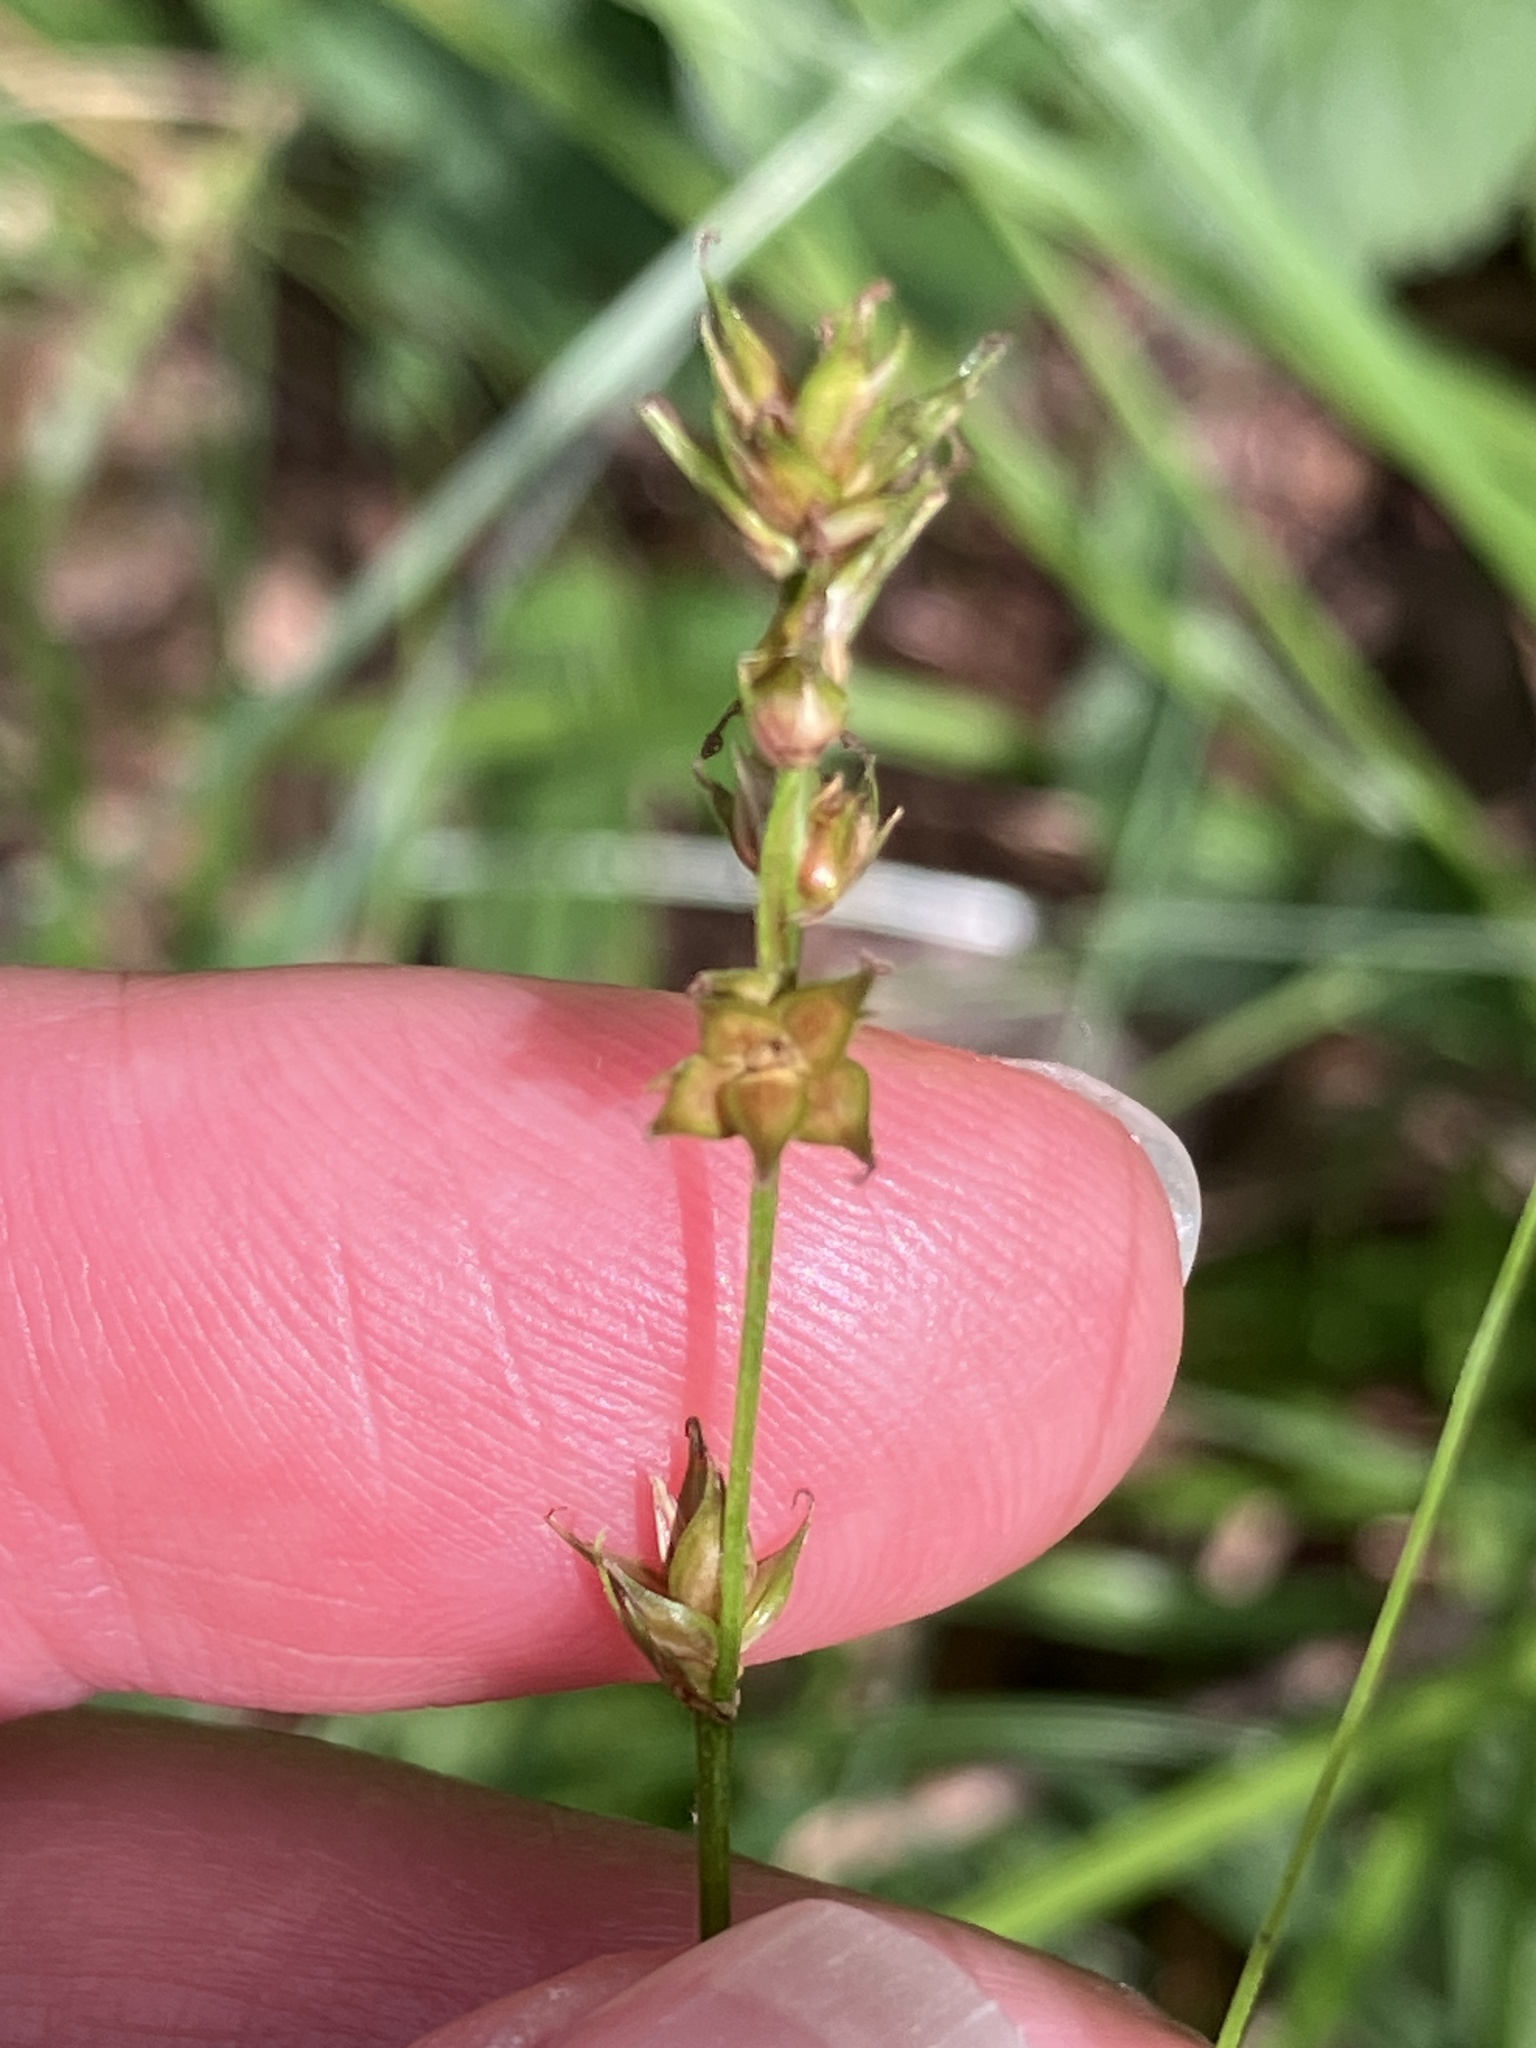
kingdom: Plantae
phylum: Tracheophyta
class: Liliopsida
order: Poales
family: Cyperaceae
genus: Carex
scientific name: Carex divulsa
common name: Grassland sedge
